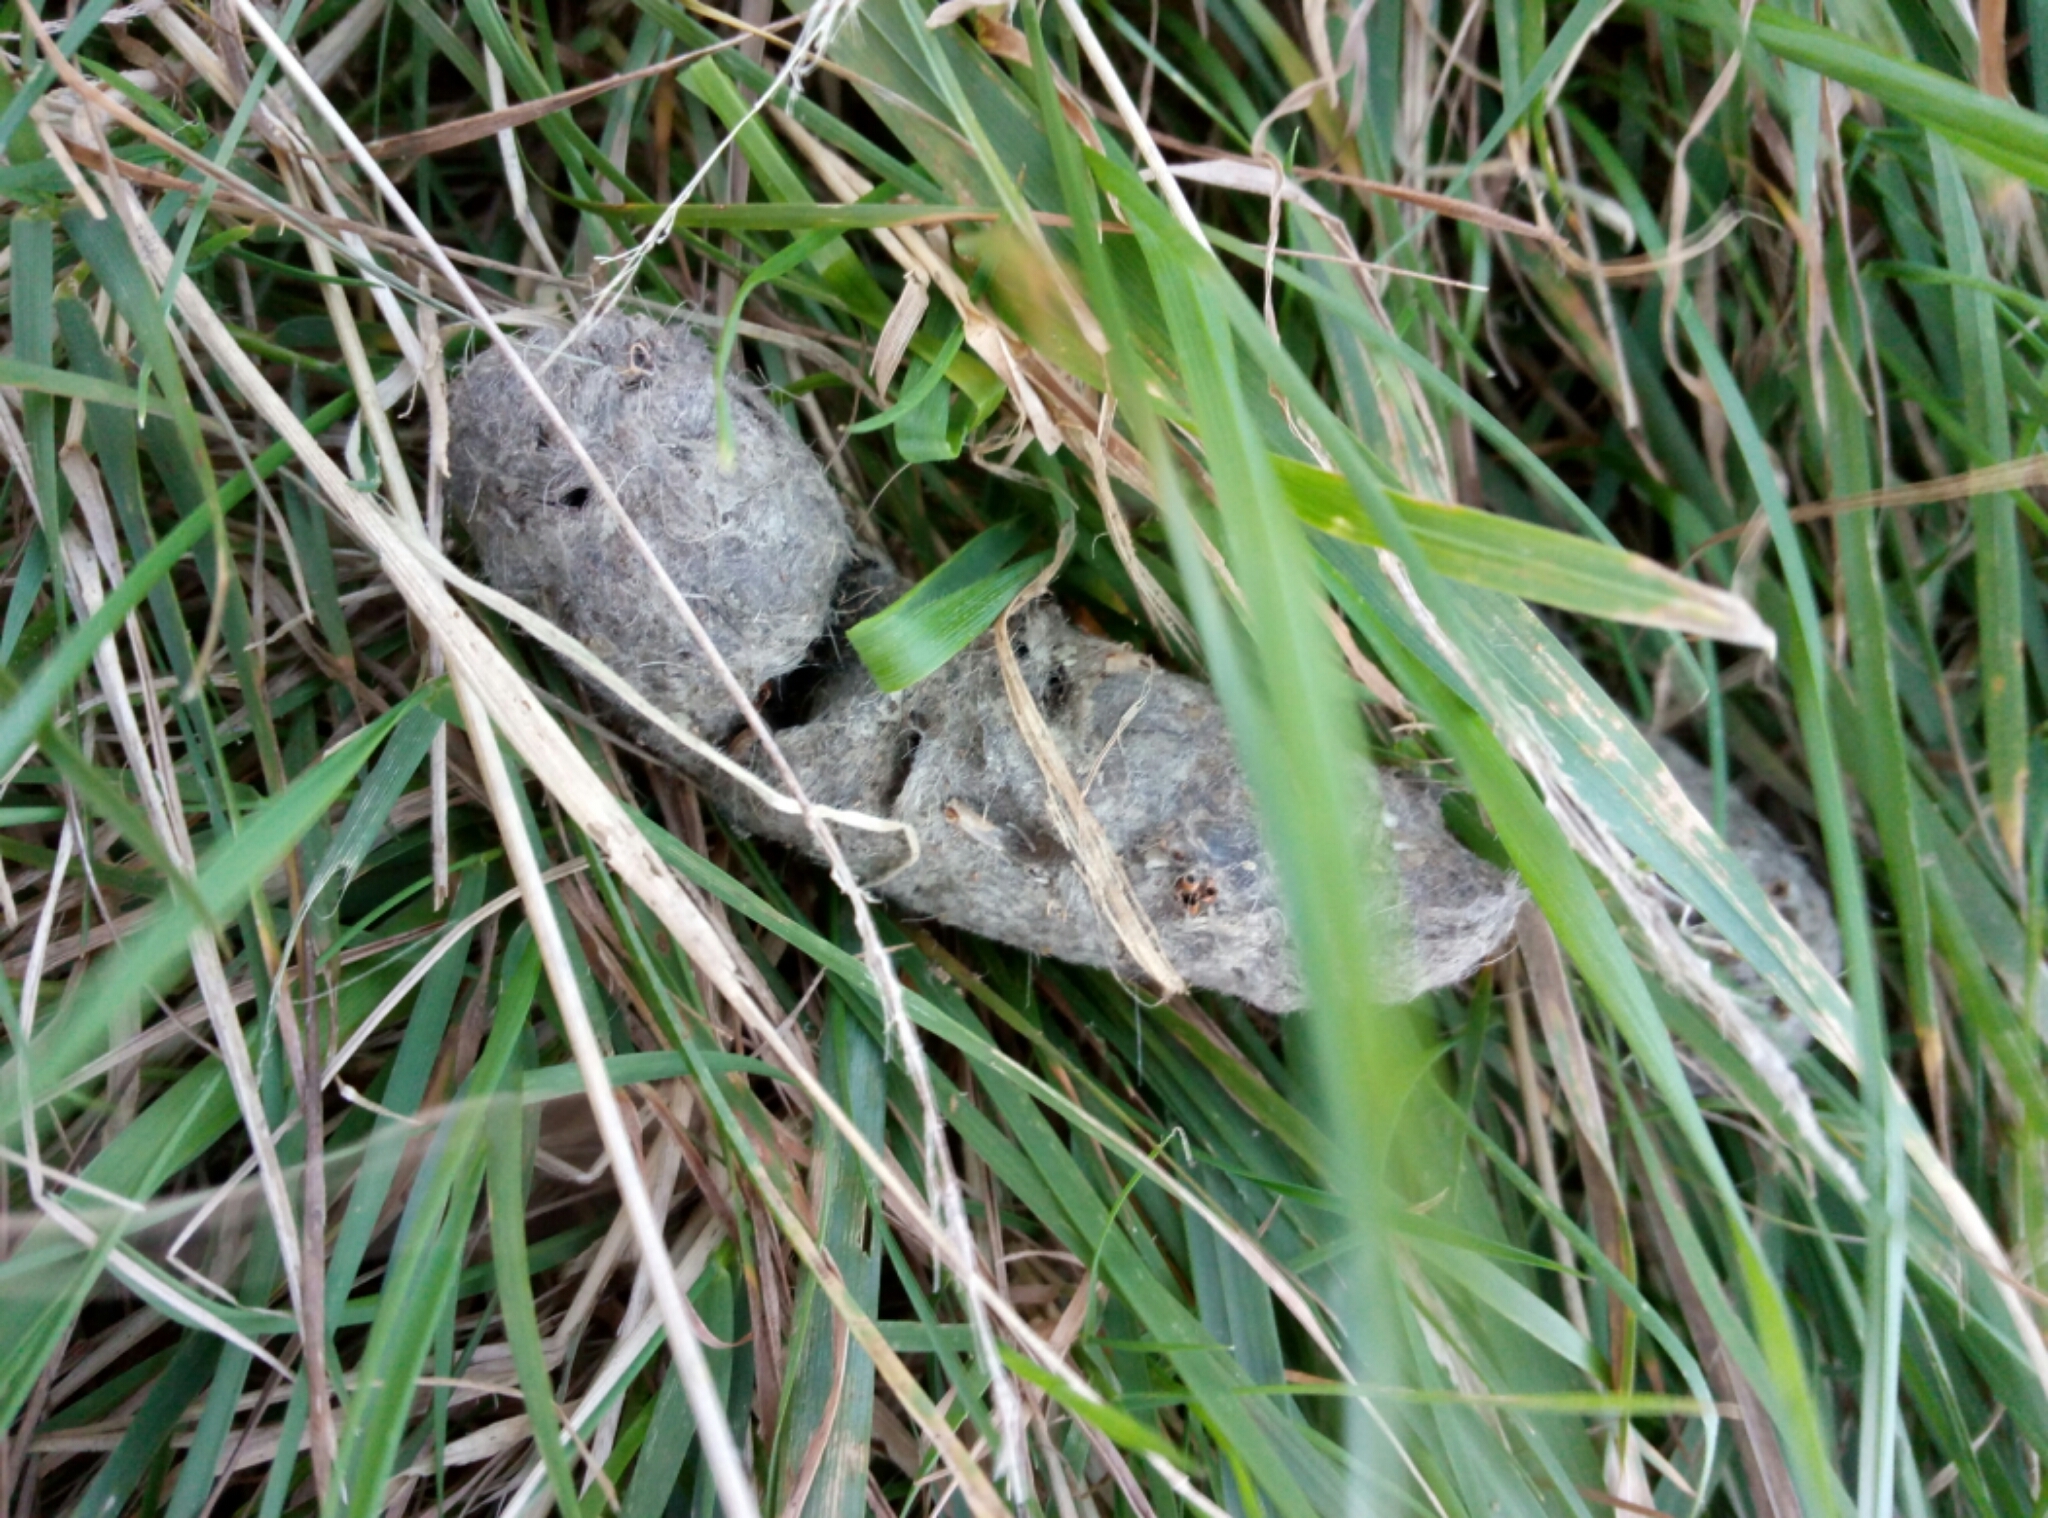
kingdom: Animalia
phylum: Chordata
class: Mammalia
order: Carnivora
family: Felidae
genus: Felis
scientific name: Felis catus
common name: Domestic cat
